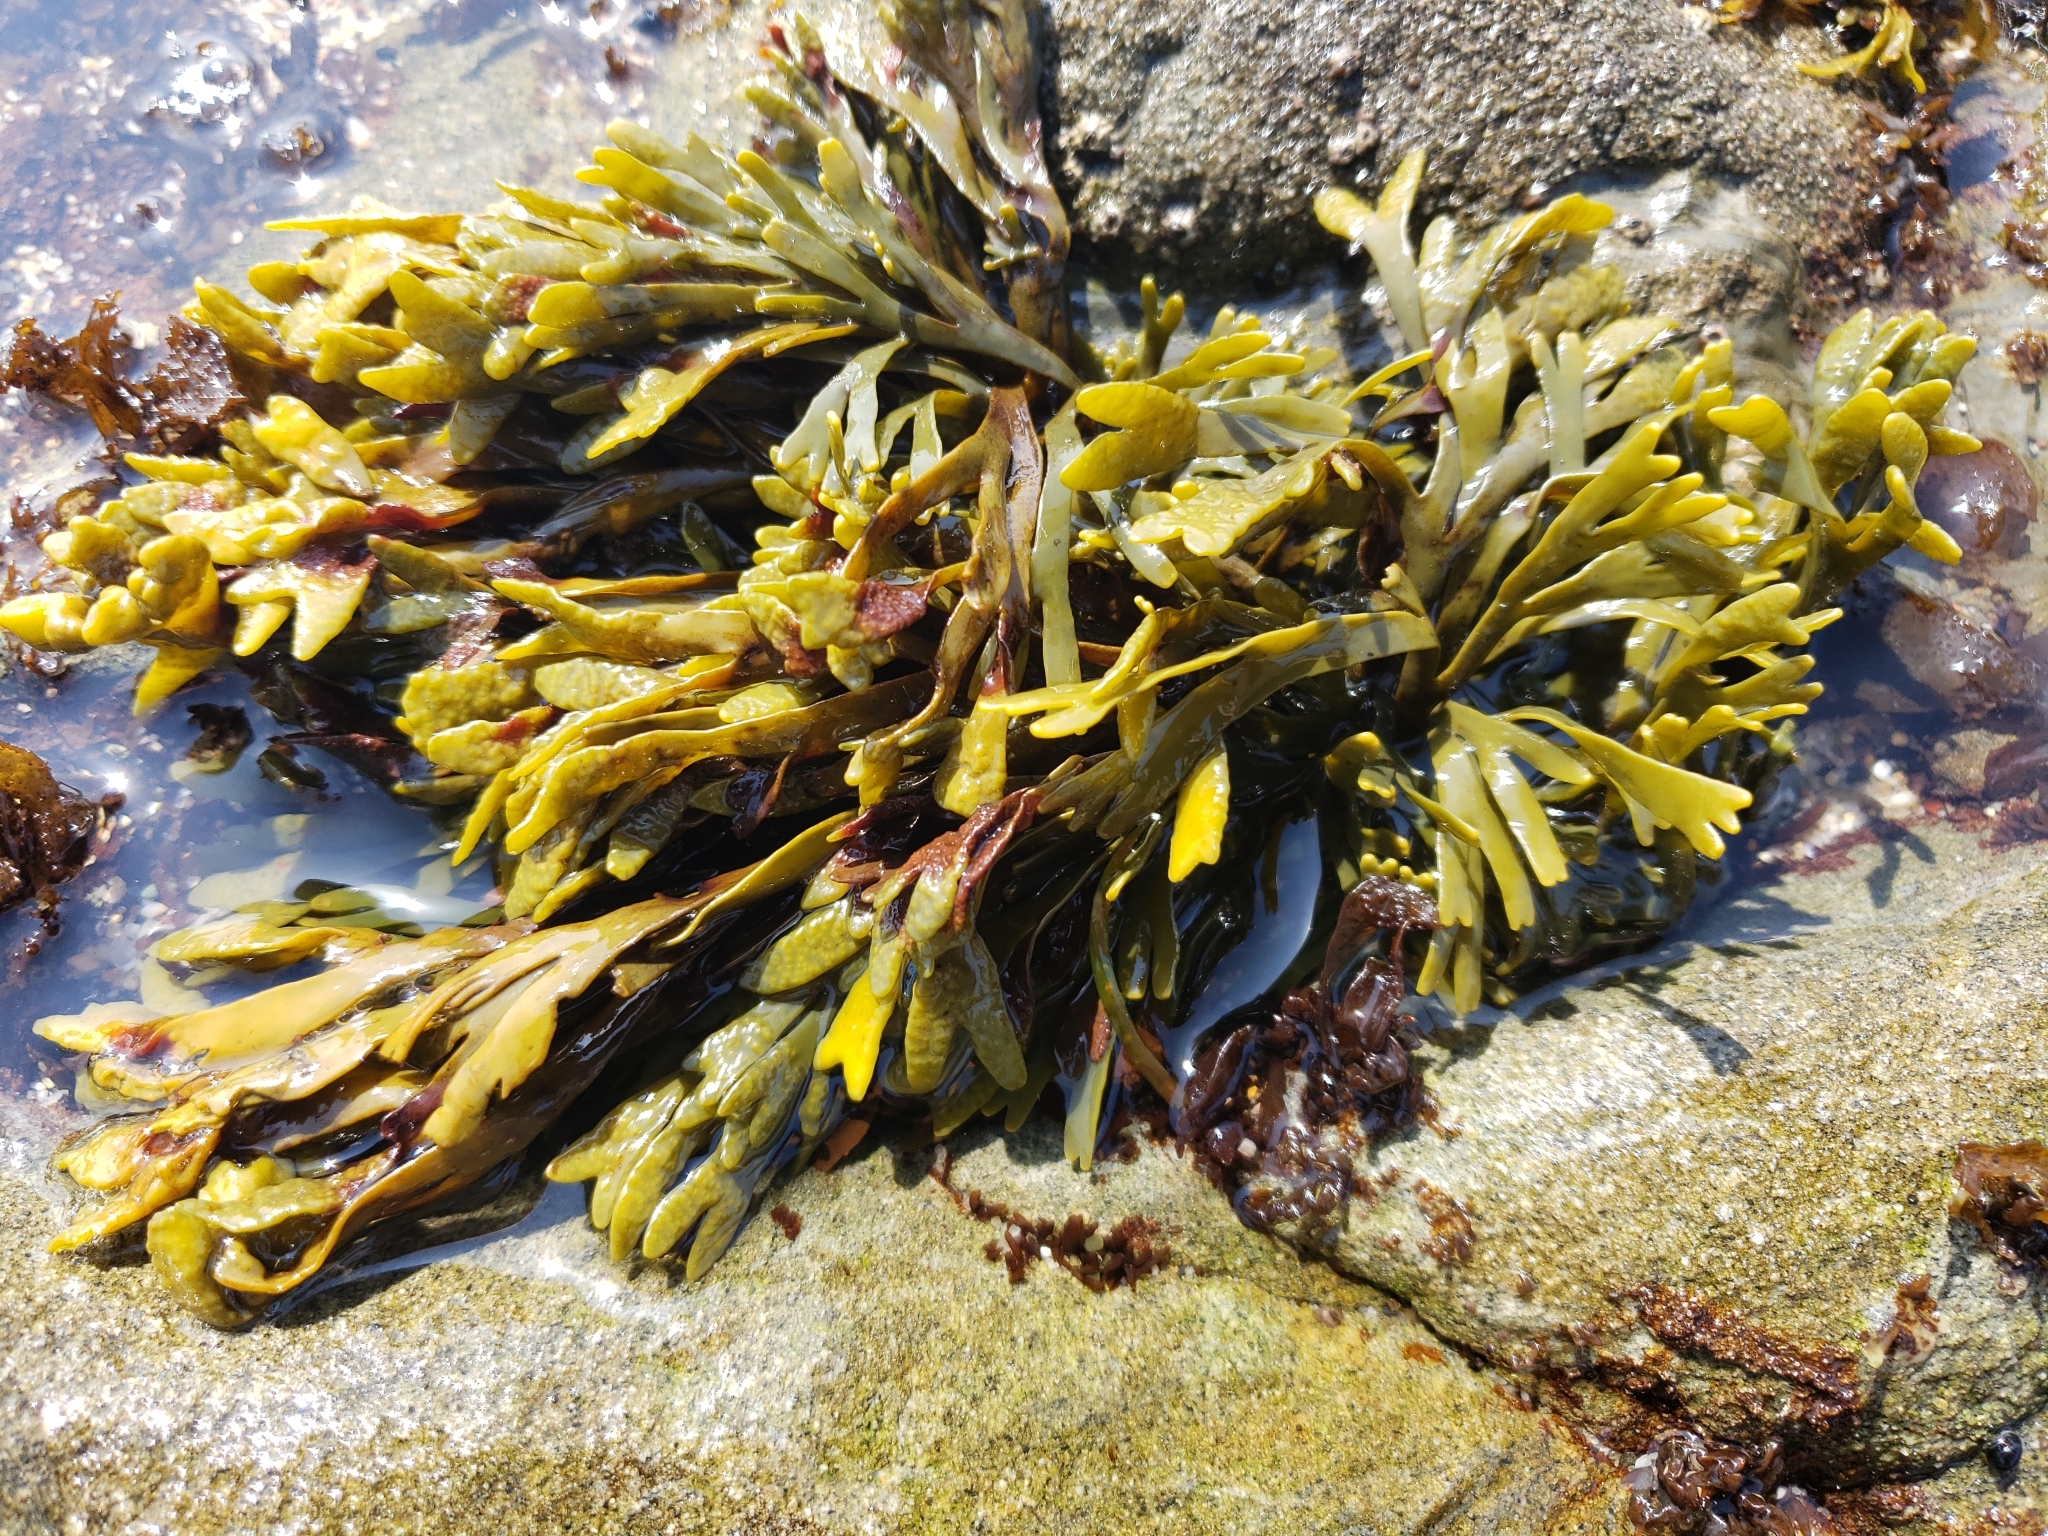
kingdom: Chromista
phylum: Ochrophyta
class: Phaeophyceae
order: Fucales
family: Fucaceae
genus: Pelvetiopsis
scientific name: Pelvetiopsis limitata
